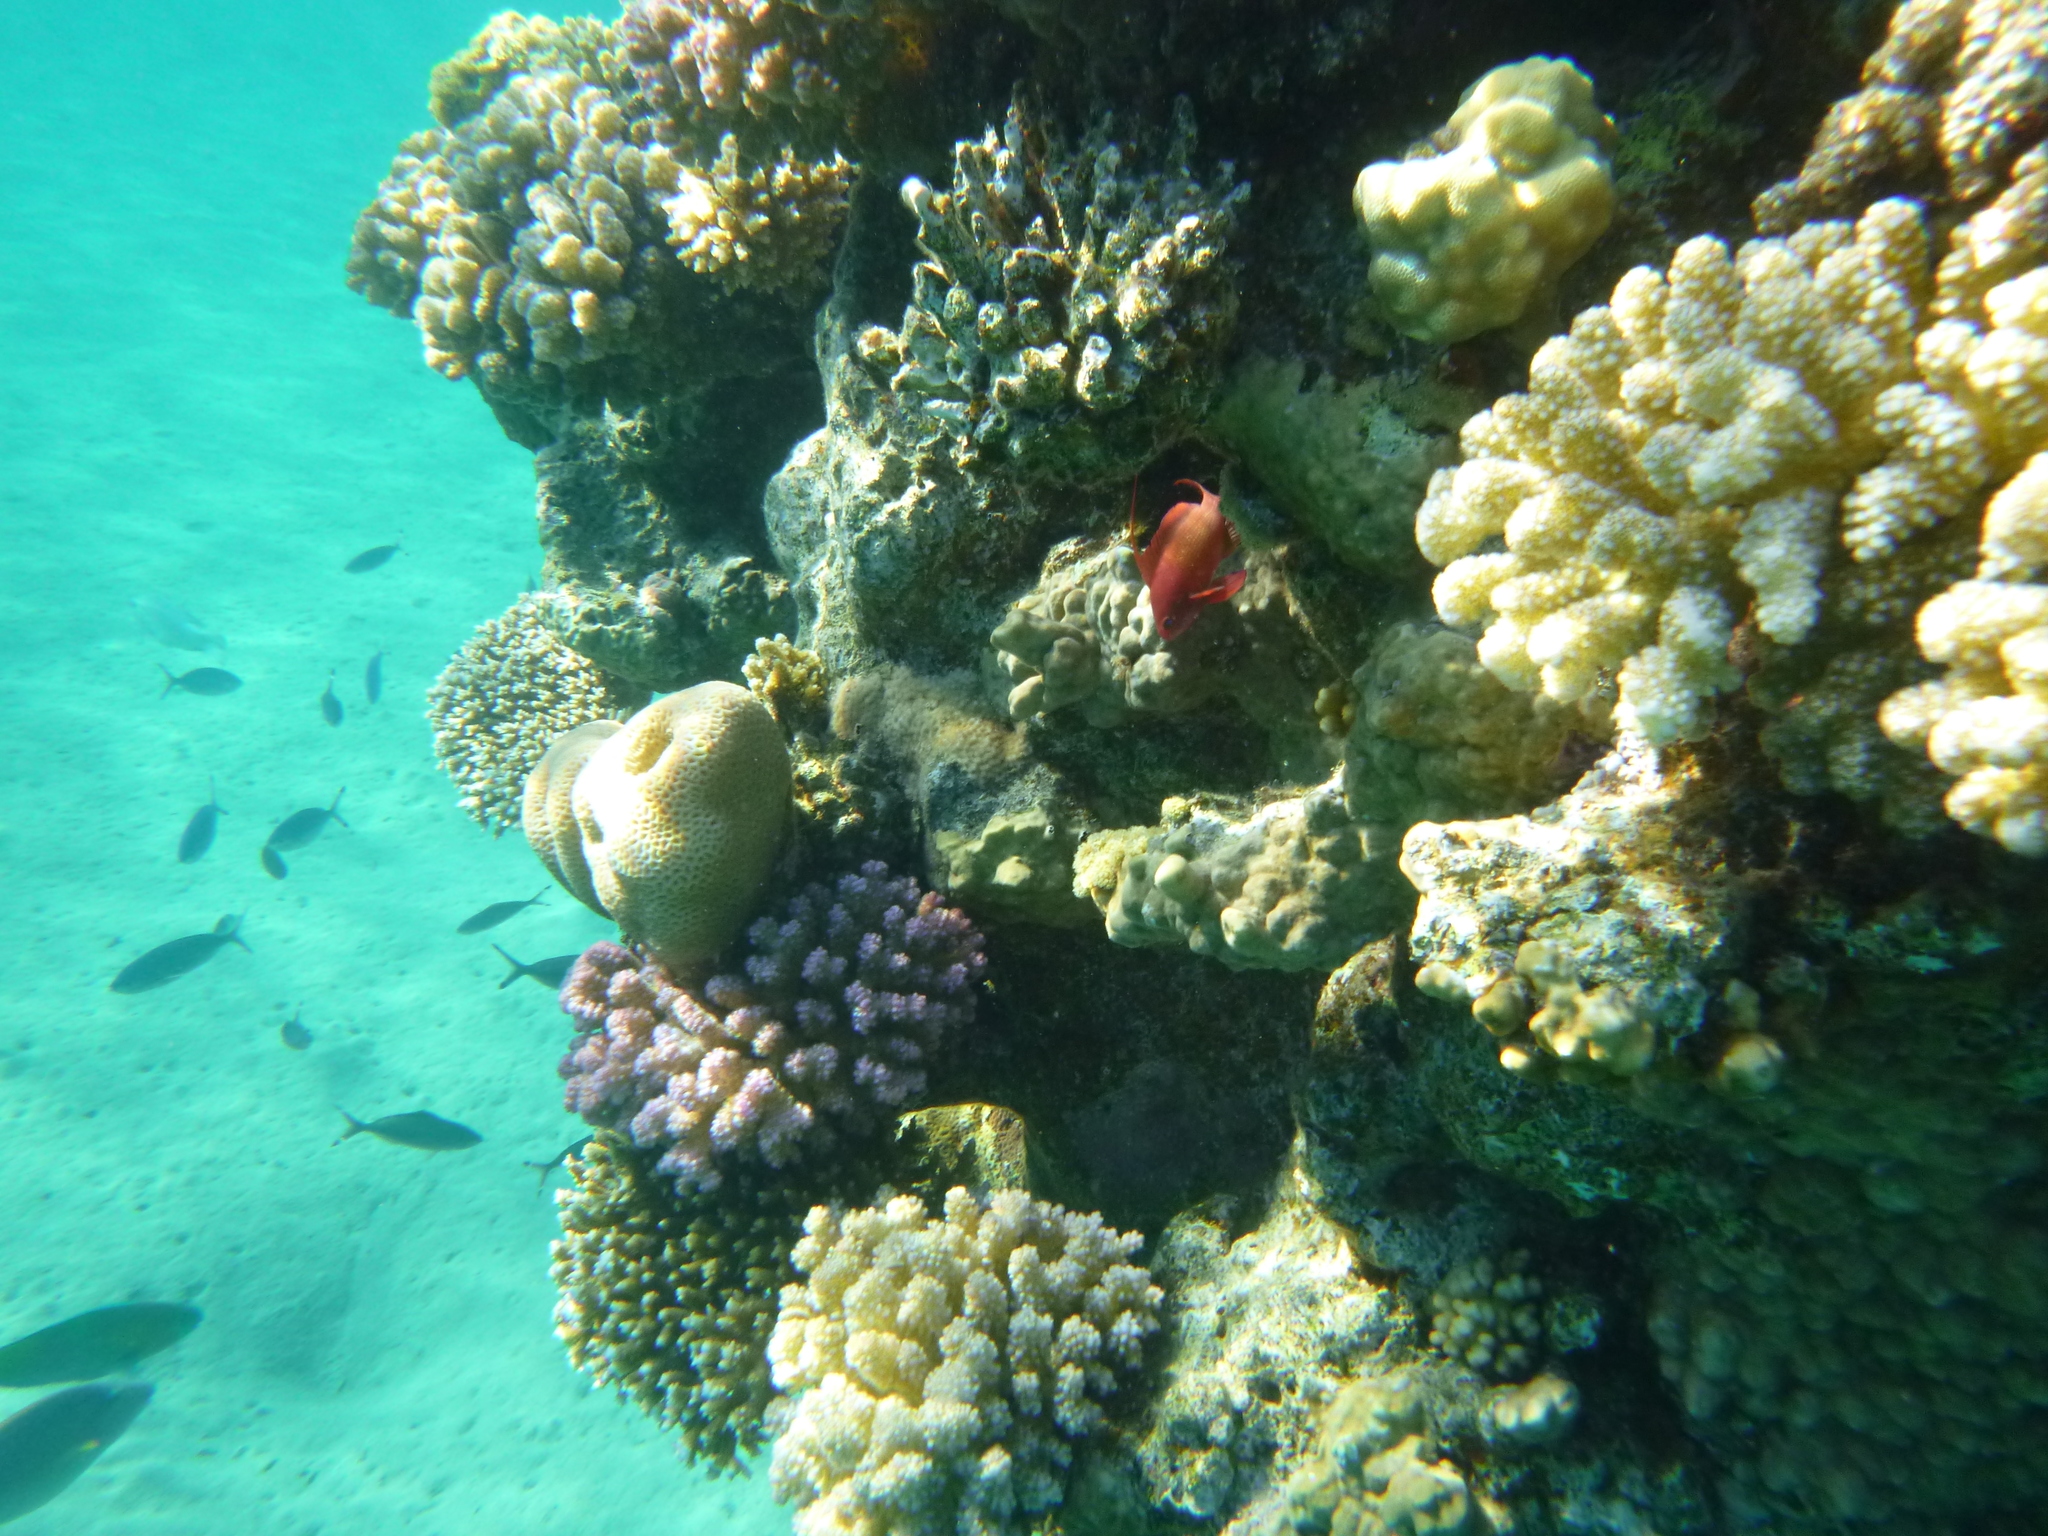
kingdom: Animalia
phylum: Chordata
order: Perciformes
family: Serranidae
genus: Pseudanthias
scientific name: Pseudanthias squamipinnis
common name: Scalefin anthias
